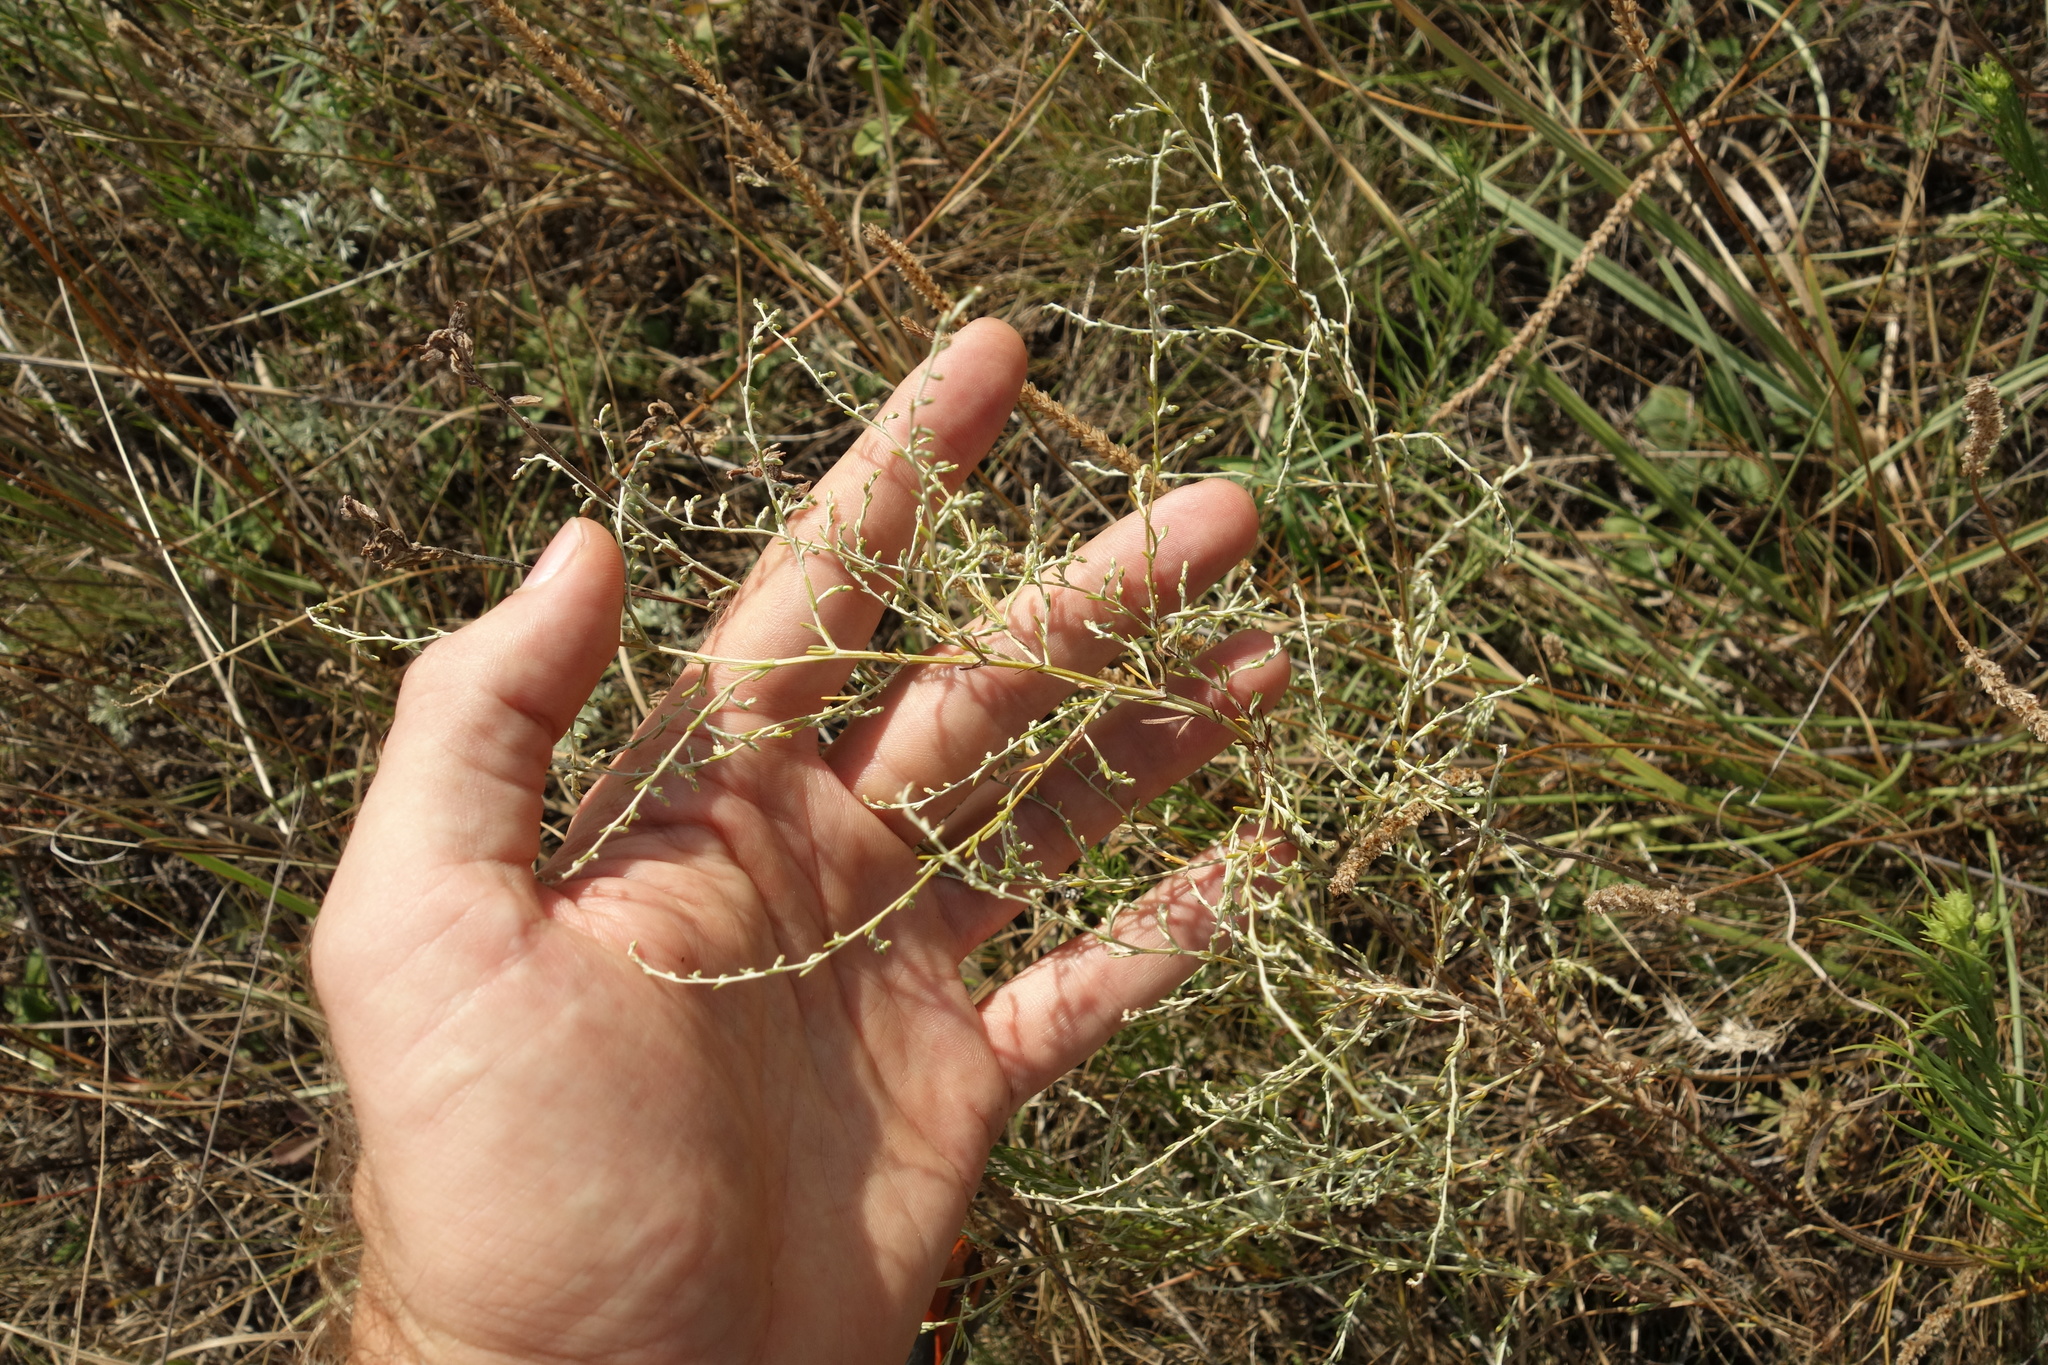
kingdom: Plantae
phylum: Tracheophyta
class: Magnoliopsida
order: Asterales
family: Asteraceae
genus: Artemisia
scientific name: Artemisia santonicum
